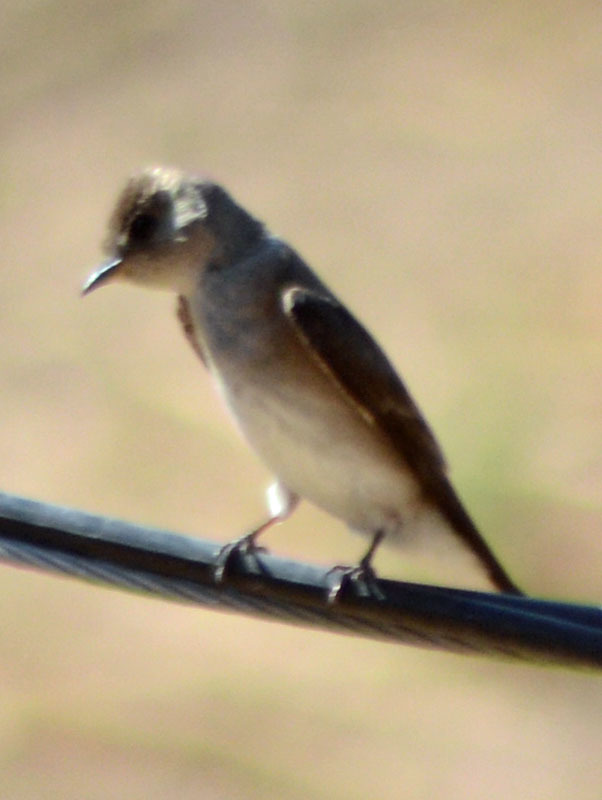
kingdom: Animalia
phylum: Chordata
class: Aves
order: Passeriformes
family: Hirundinidae
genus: Stelgidopteryx
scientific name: Stelgidopteryx serripennis
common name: Northern rough-winged swallow
